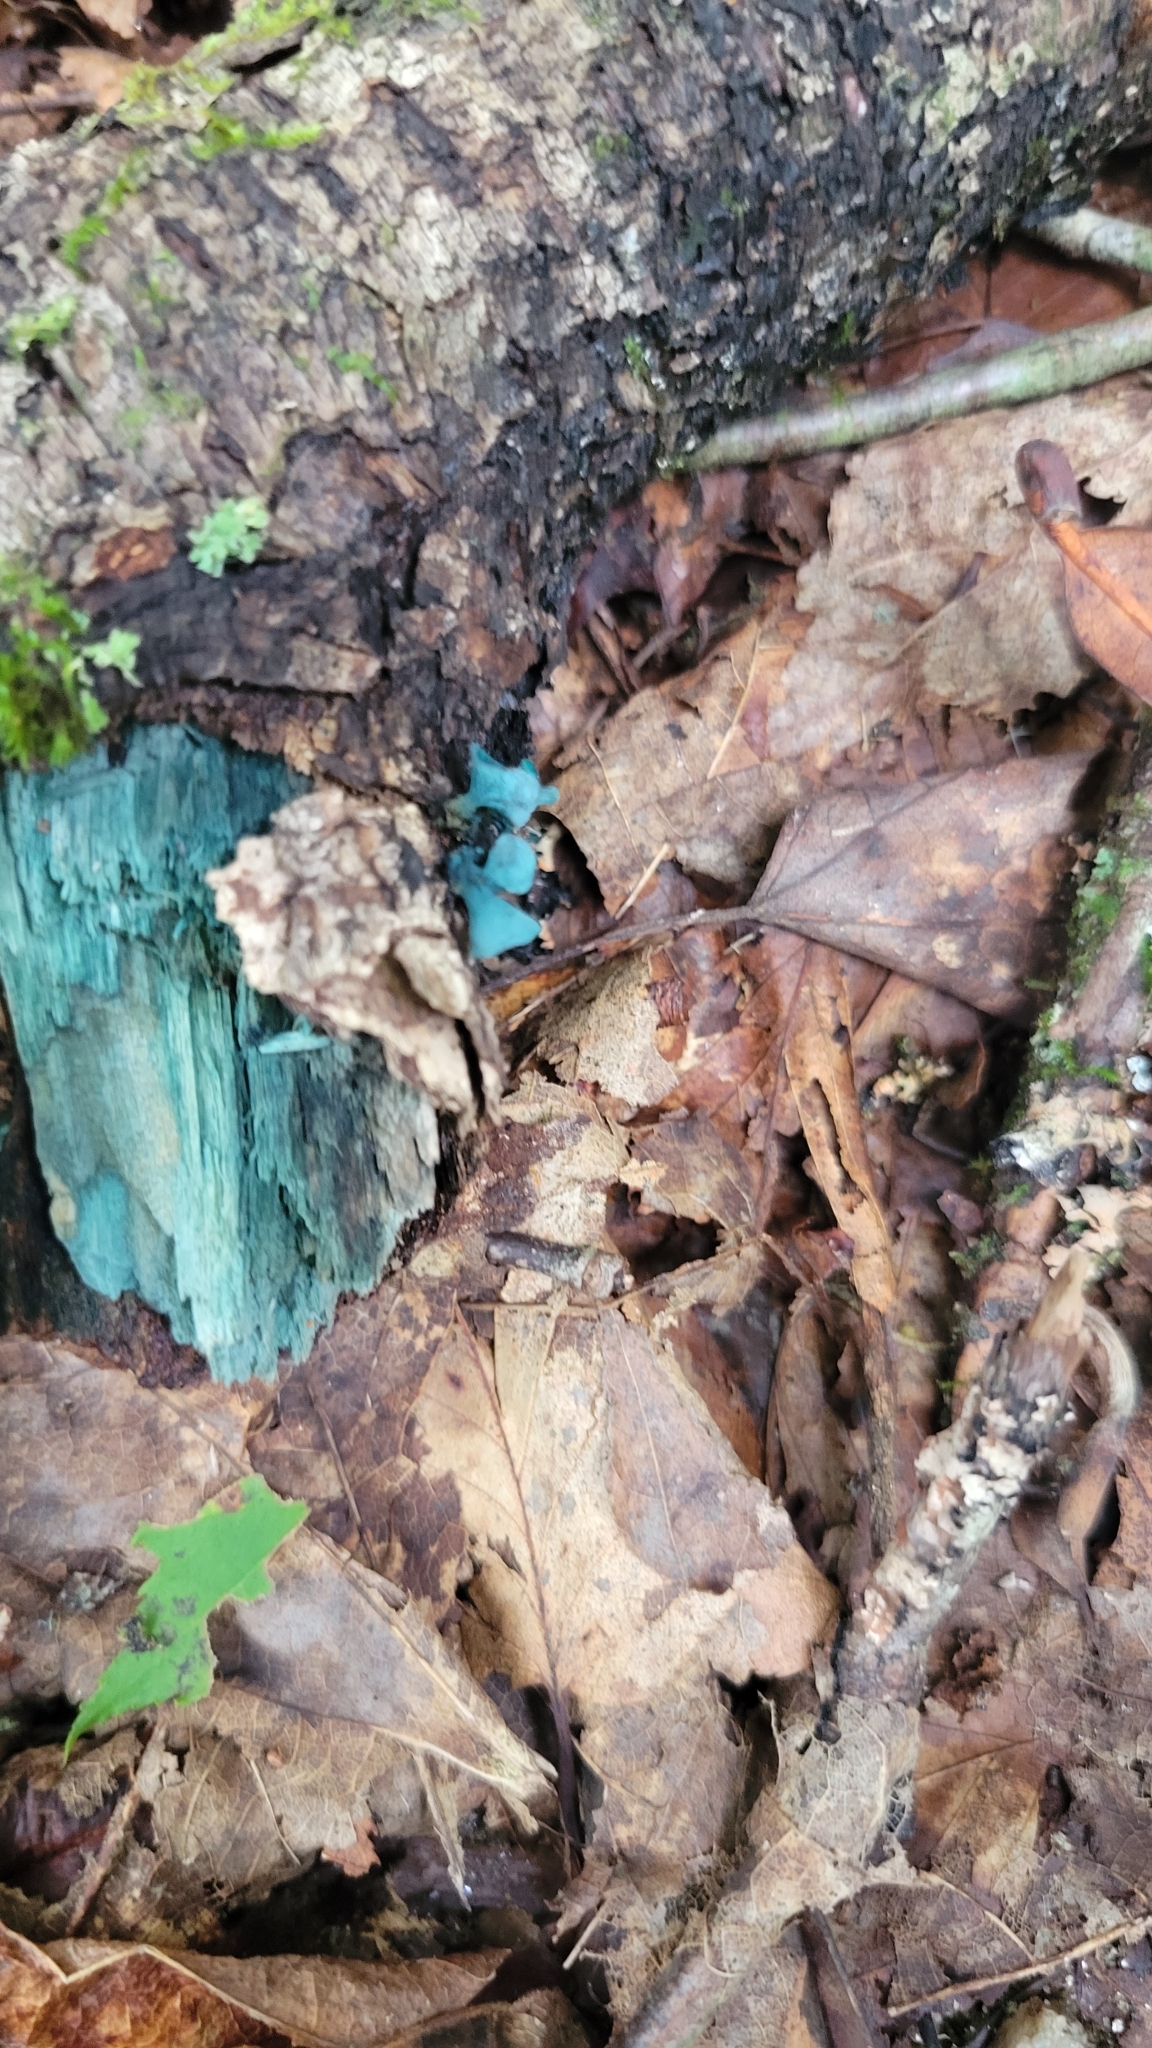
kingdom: Fungi
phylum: Ascomycota
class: Leotiomycetes
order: Helotiales
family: Chlorociboriaceae
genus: Chlorociboria
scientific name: Chlorociboria aeruginascens
